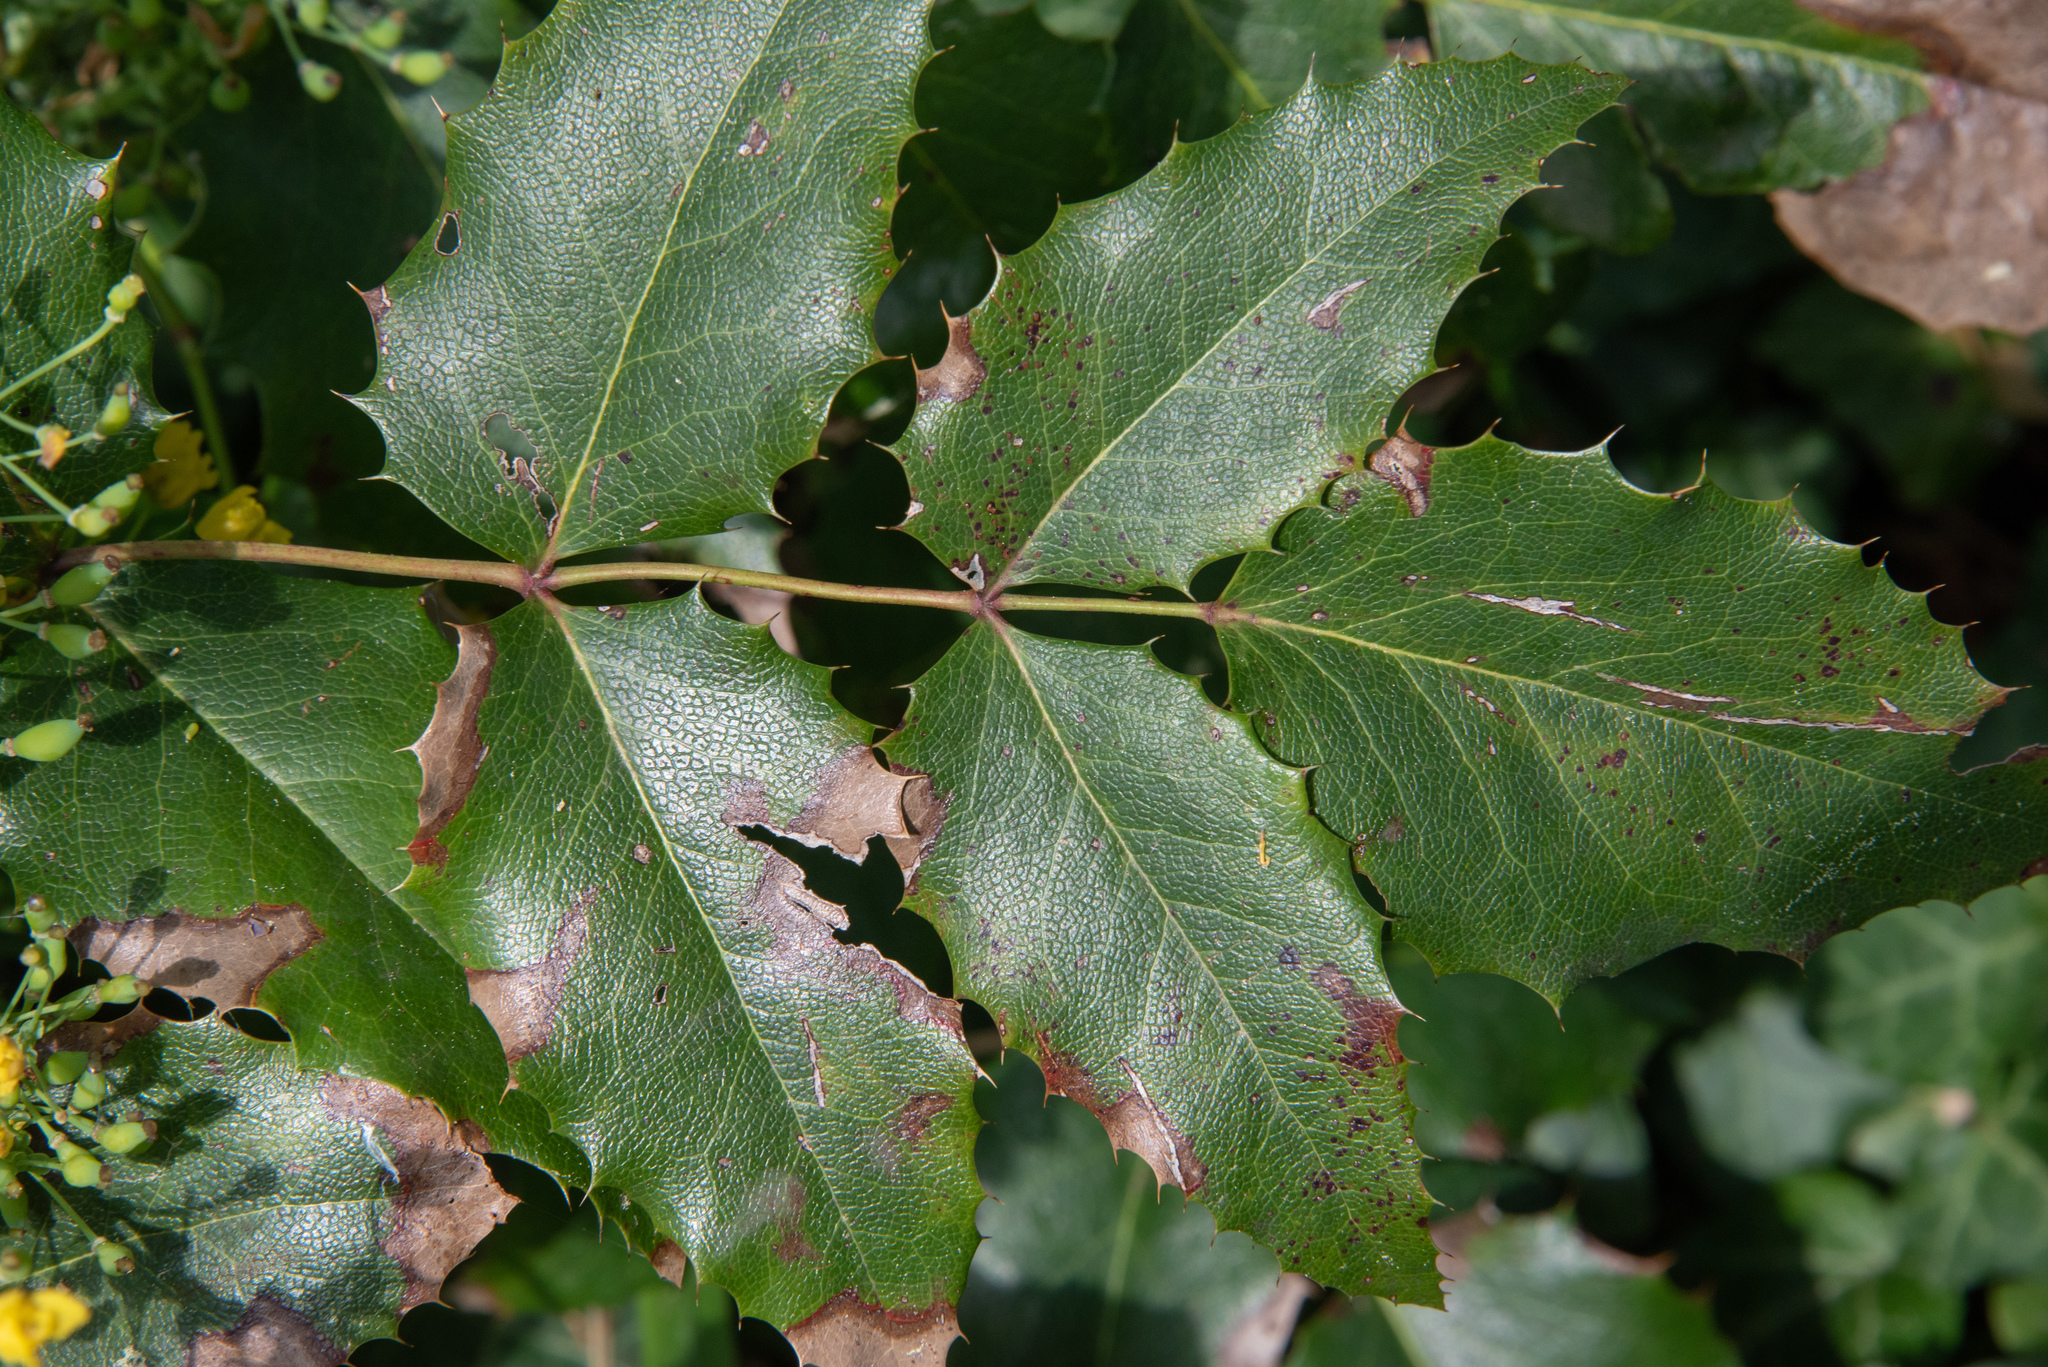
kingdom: Plantae
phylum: Tracheophyta
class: Magnoliopsida
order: Ranunculales
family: Berberidaceae
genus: Mahonia
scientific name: Mahonia aquifolium
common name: Oregon-grape
